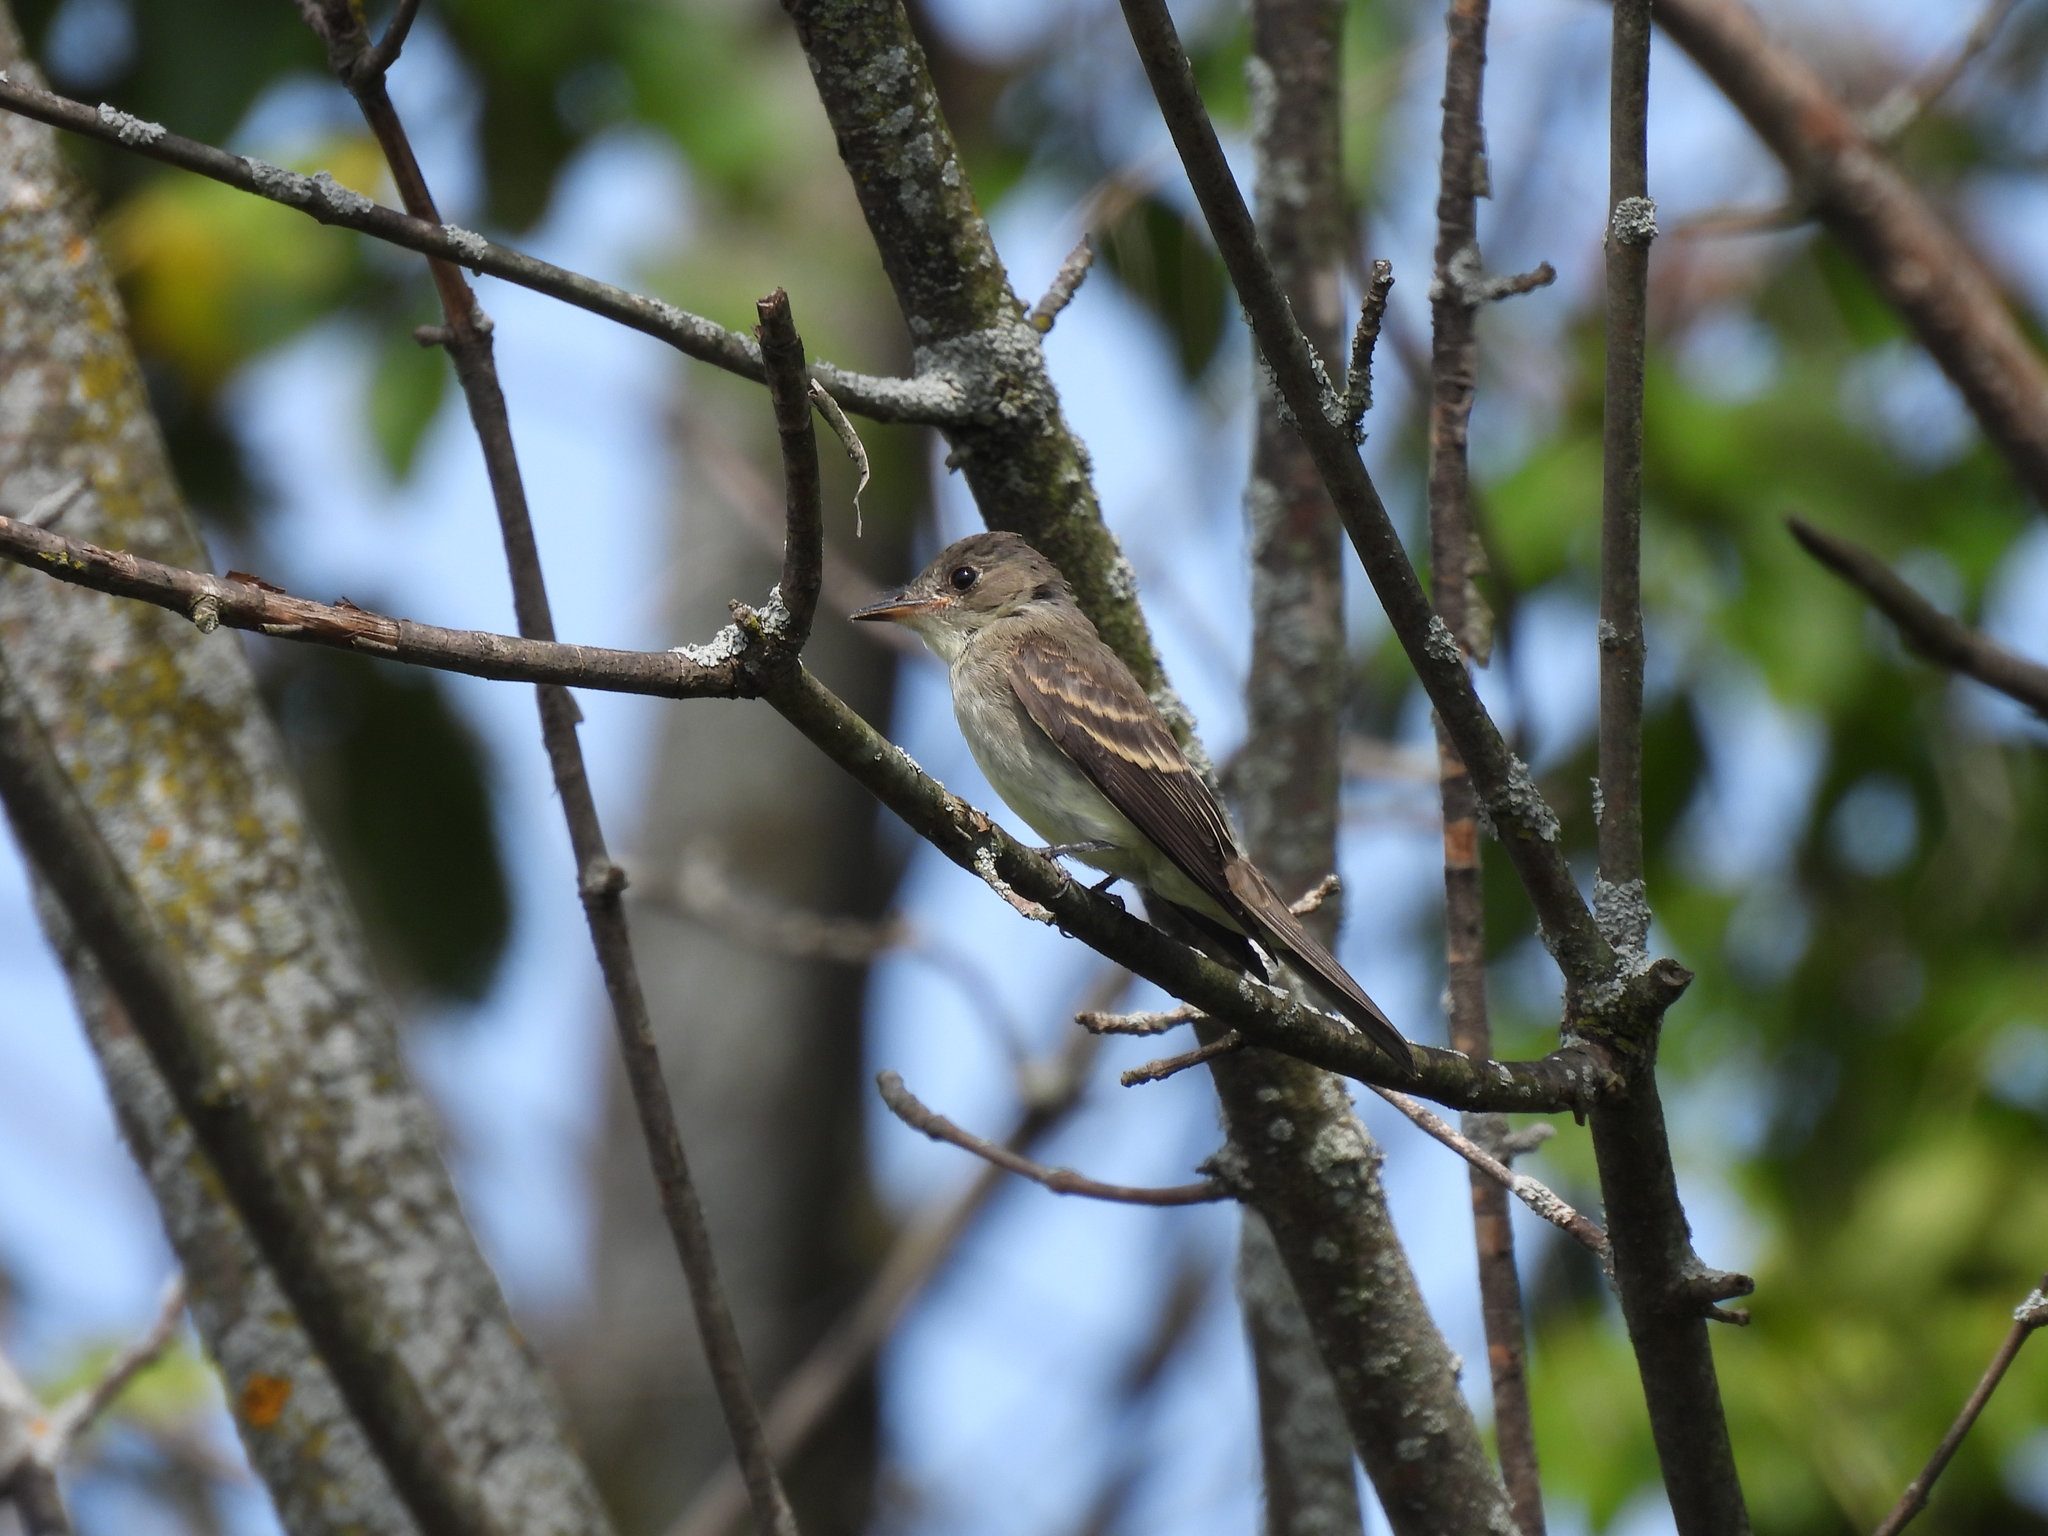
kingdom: Animalia
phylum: Chordata
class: Aves
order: Passeriformes
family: Tyrannidae
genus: Contopus
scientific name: Contopus virens
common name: Eastern wood-pewee
